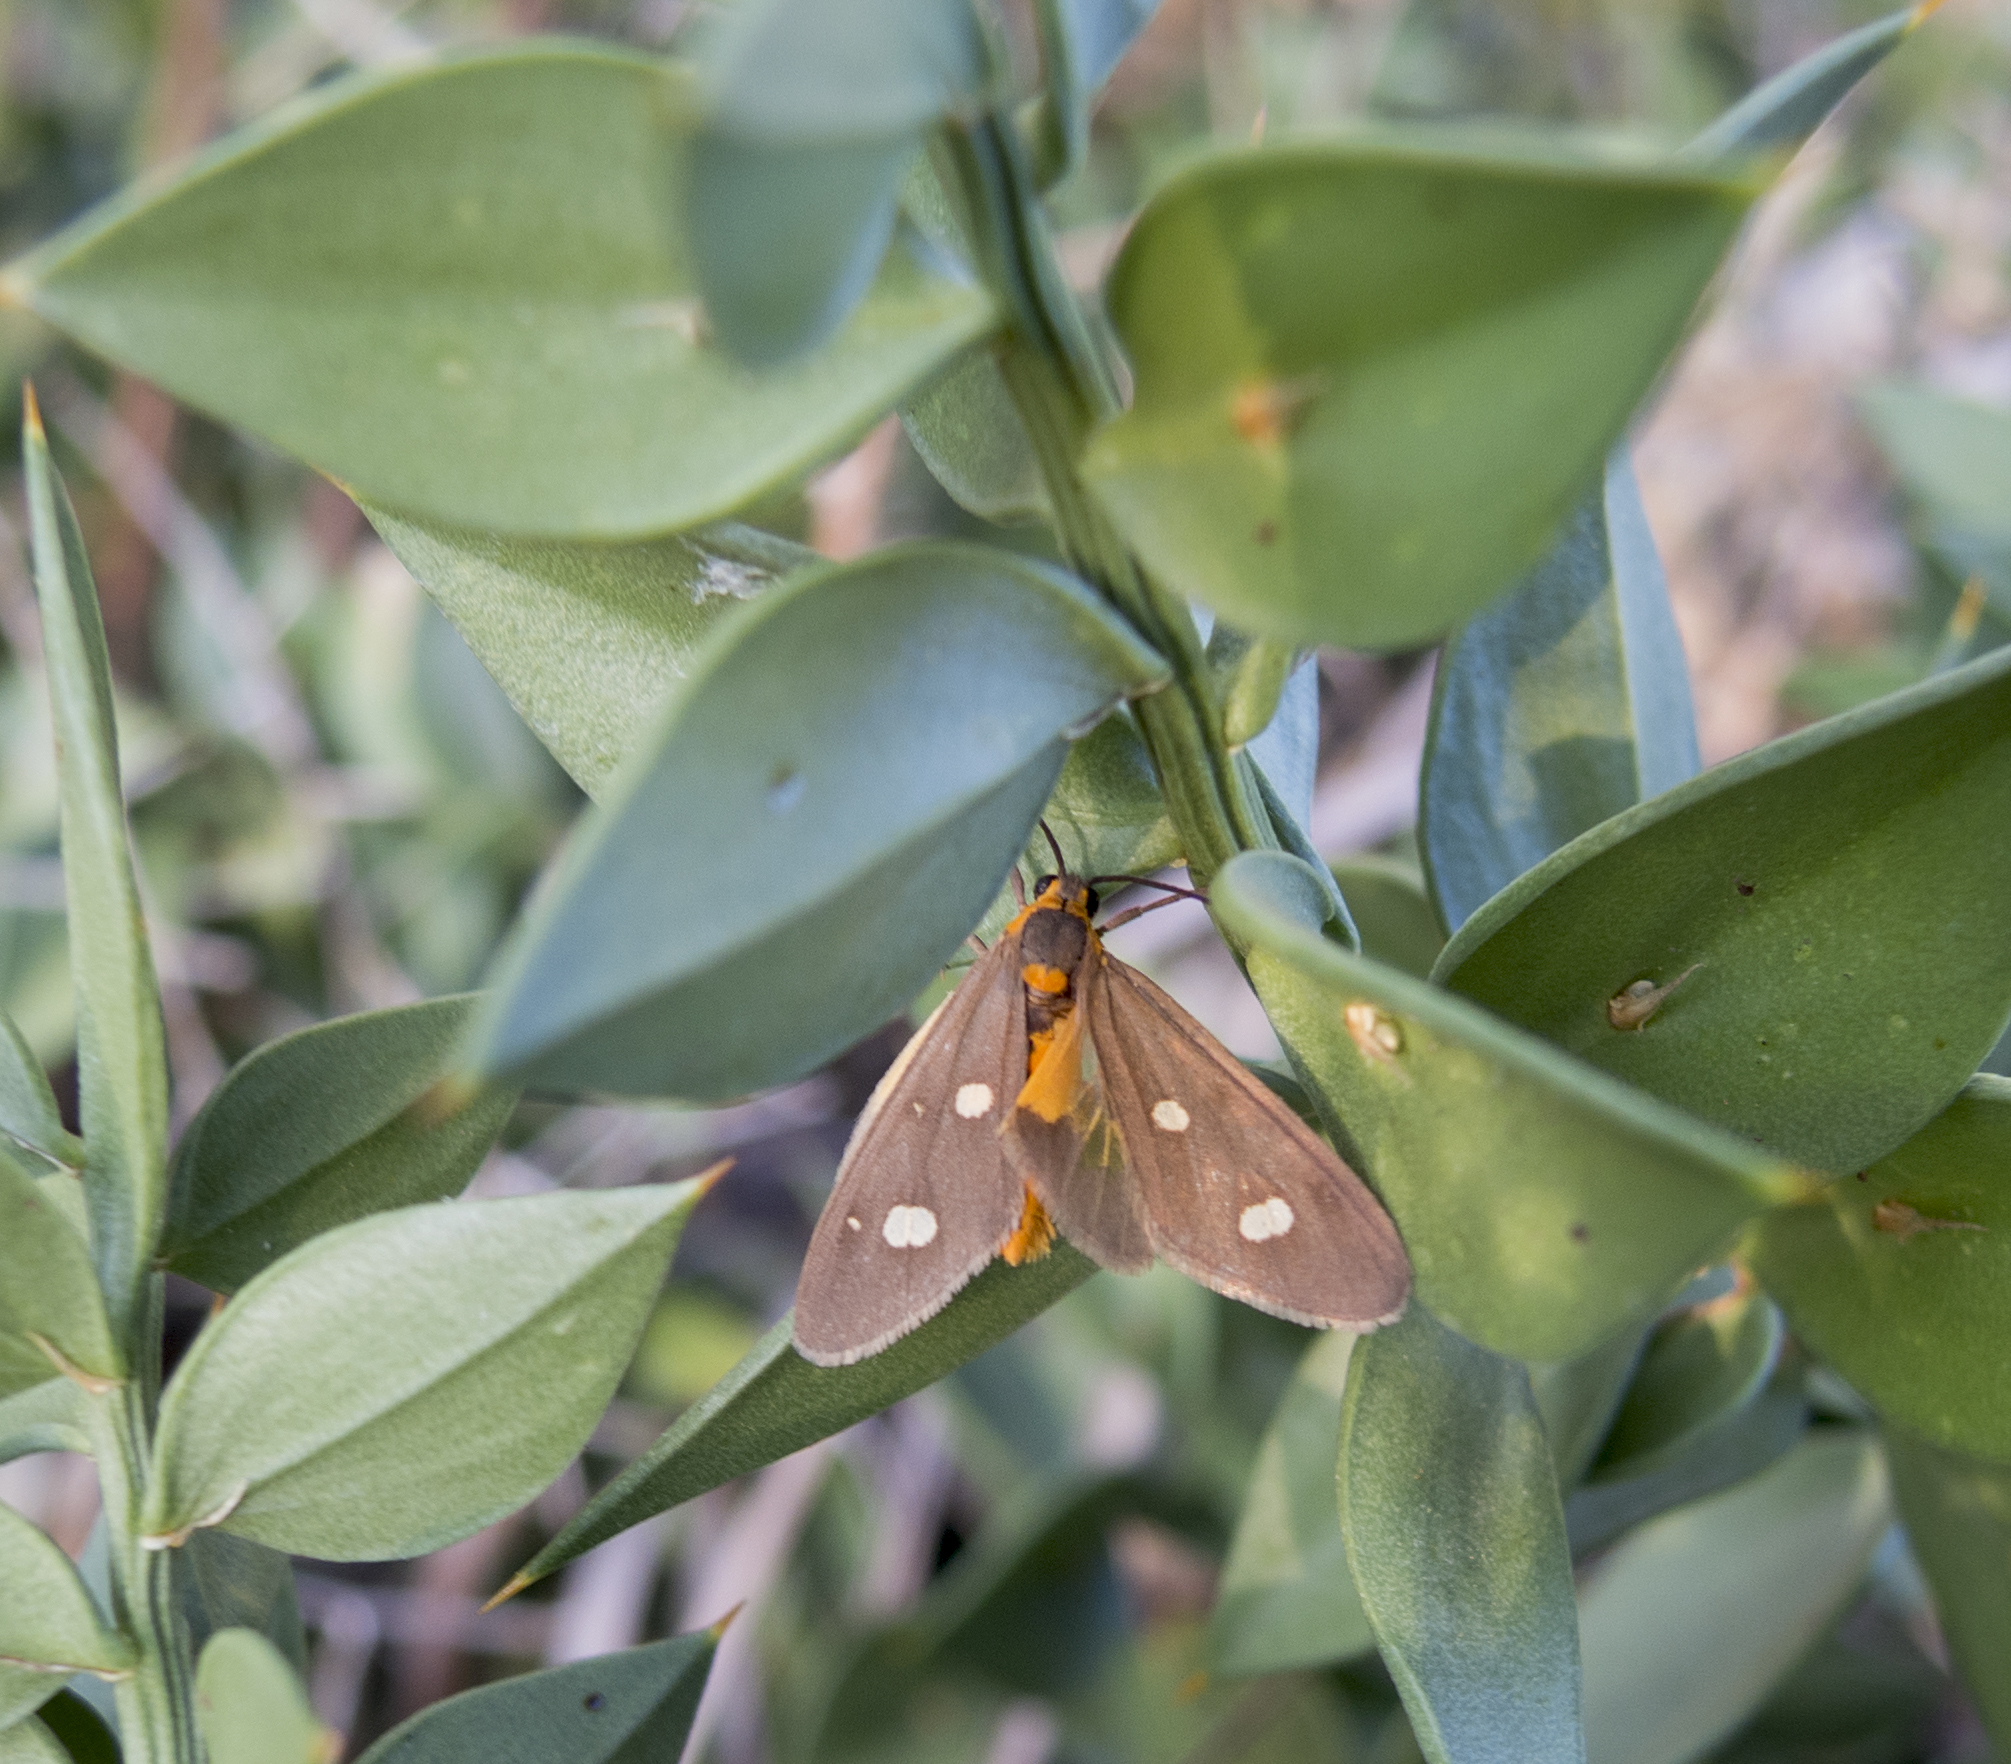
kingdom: Animalia
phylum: Arthropoda
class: Insecta
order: Lepidoptera
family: Erebidae
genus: Dysauxes
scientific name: Dysauxes punctata
